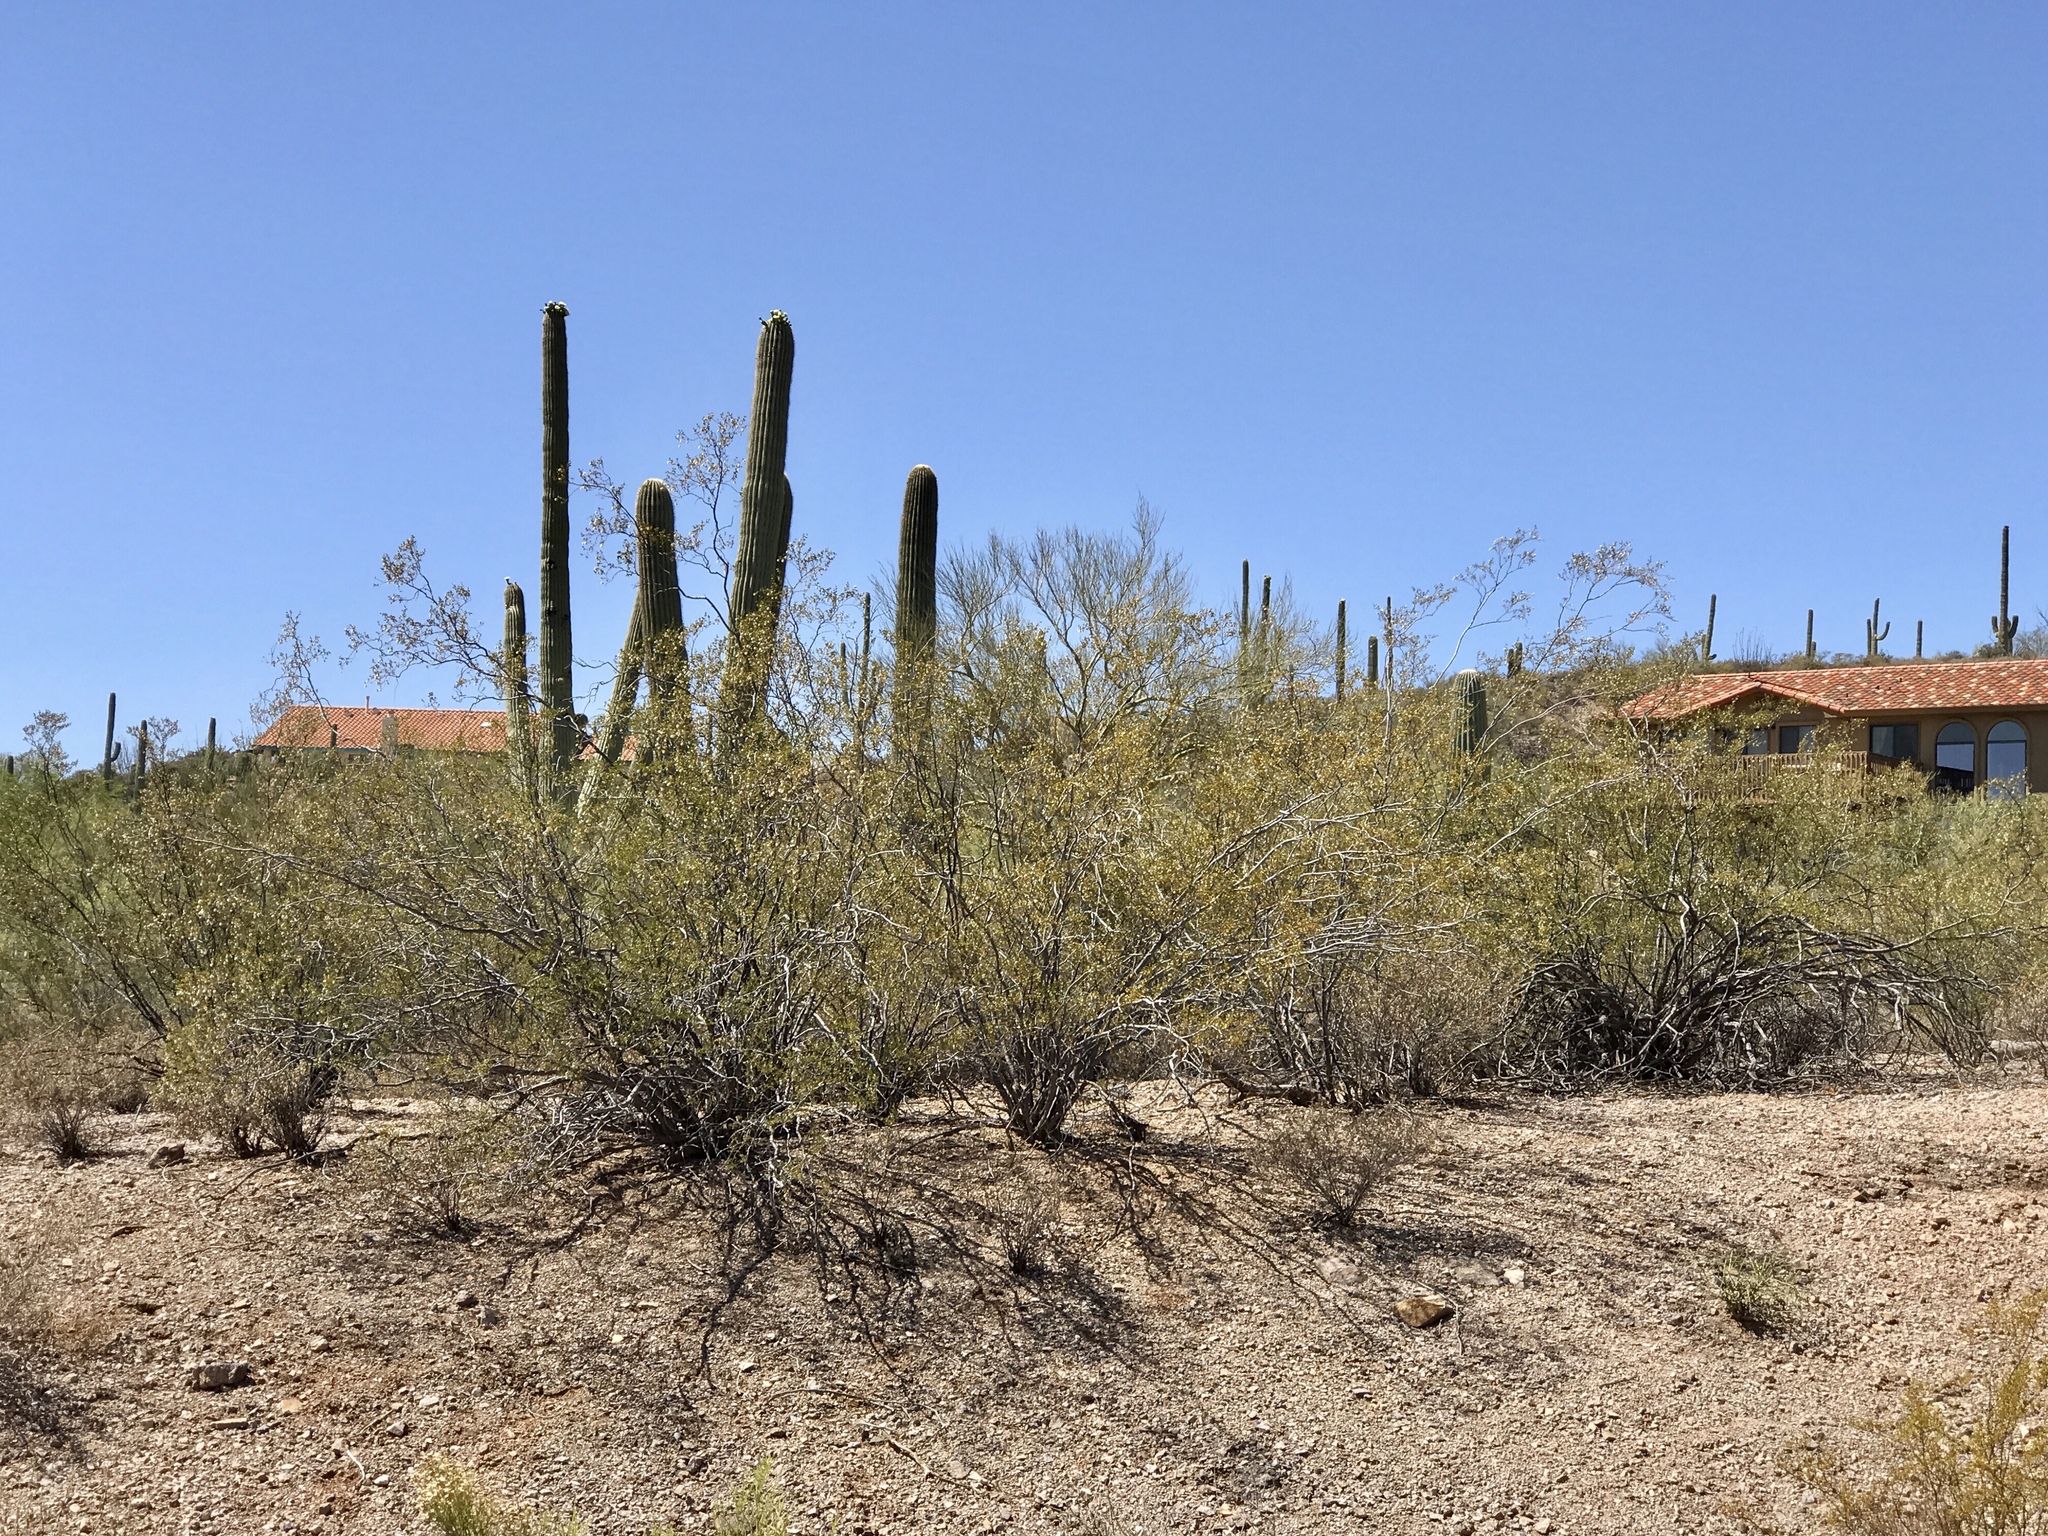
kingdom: Plantae
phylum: Tracheophyta
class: Magnoliopsida
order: Zygophyllales
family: Zygophyllaceae
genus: Larrea
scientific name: Larrea tridentata
